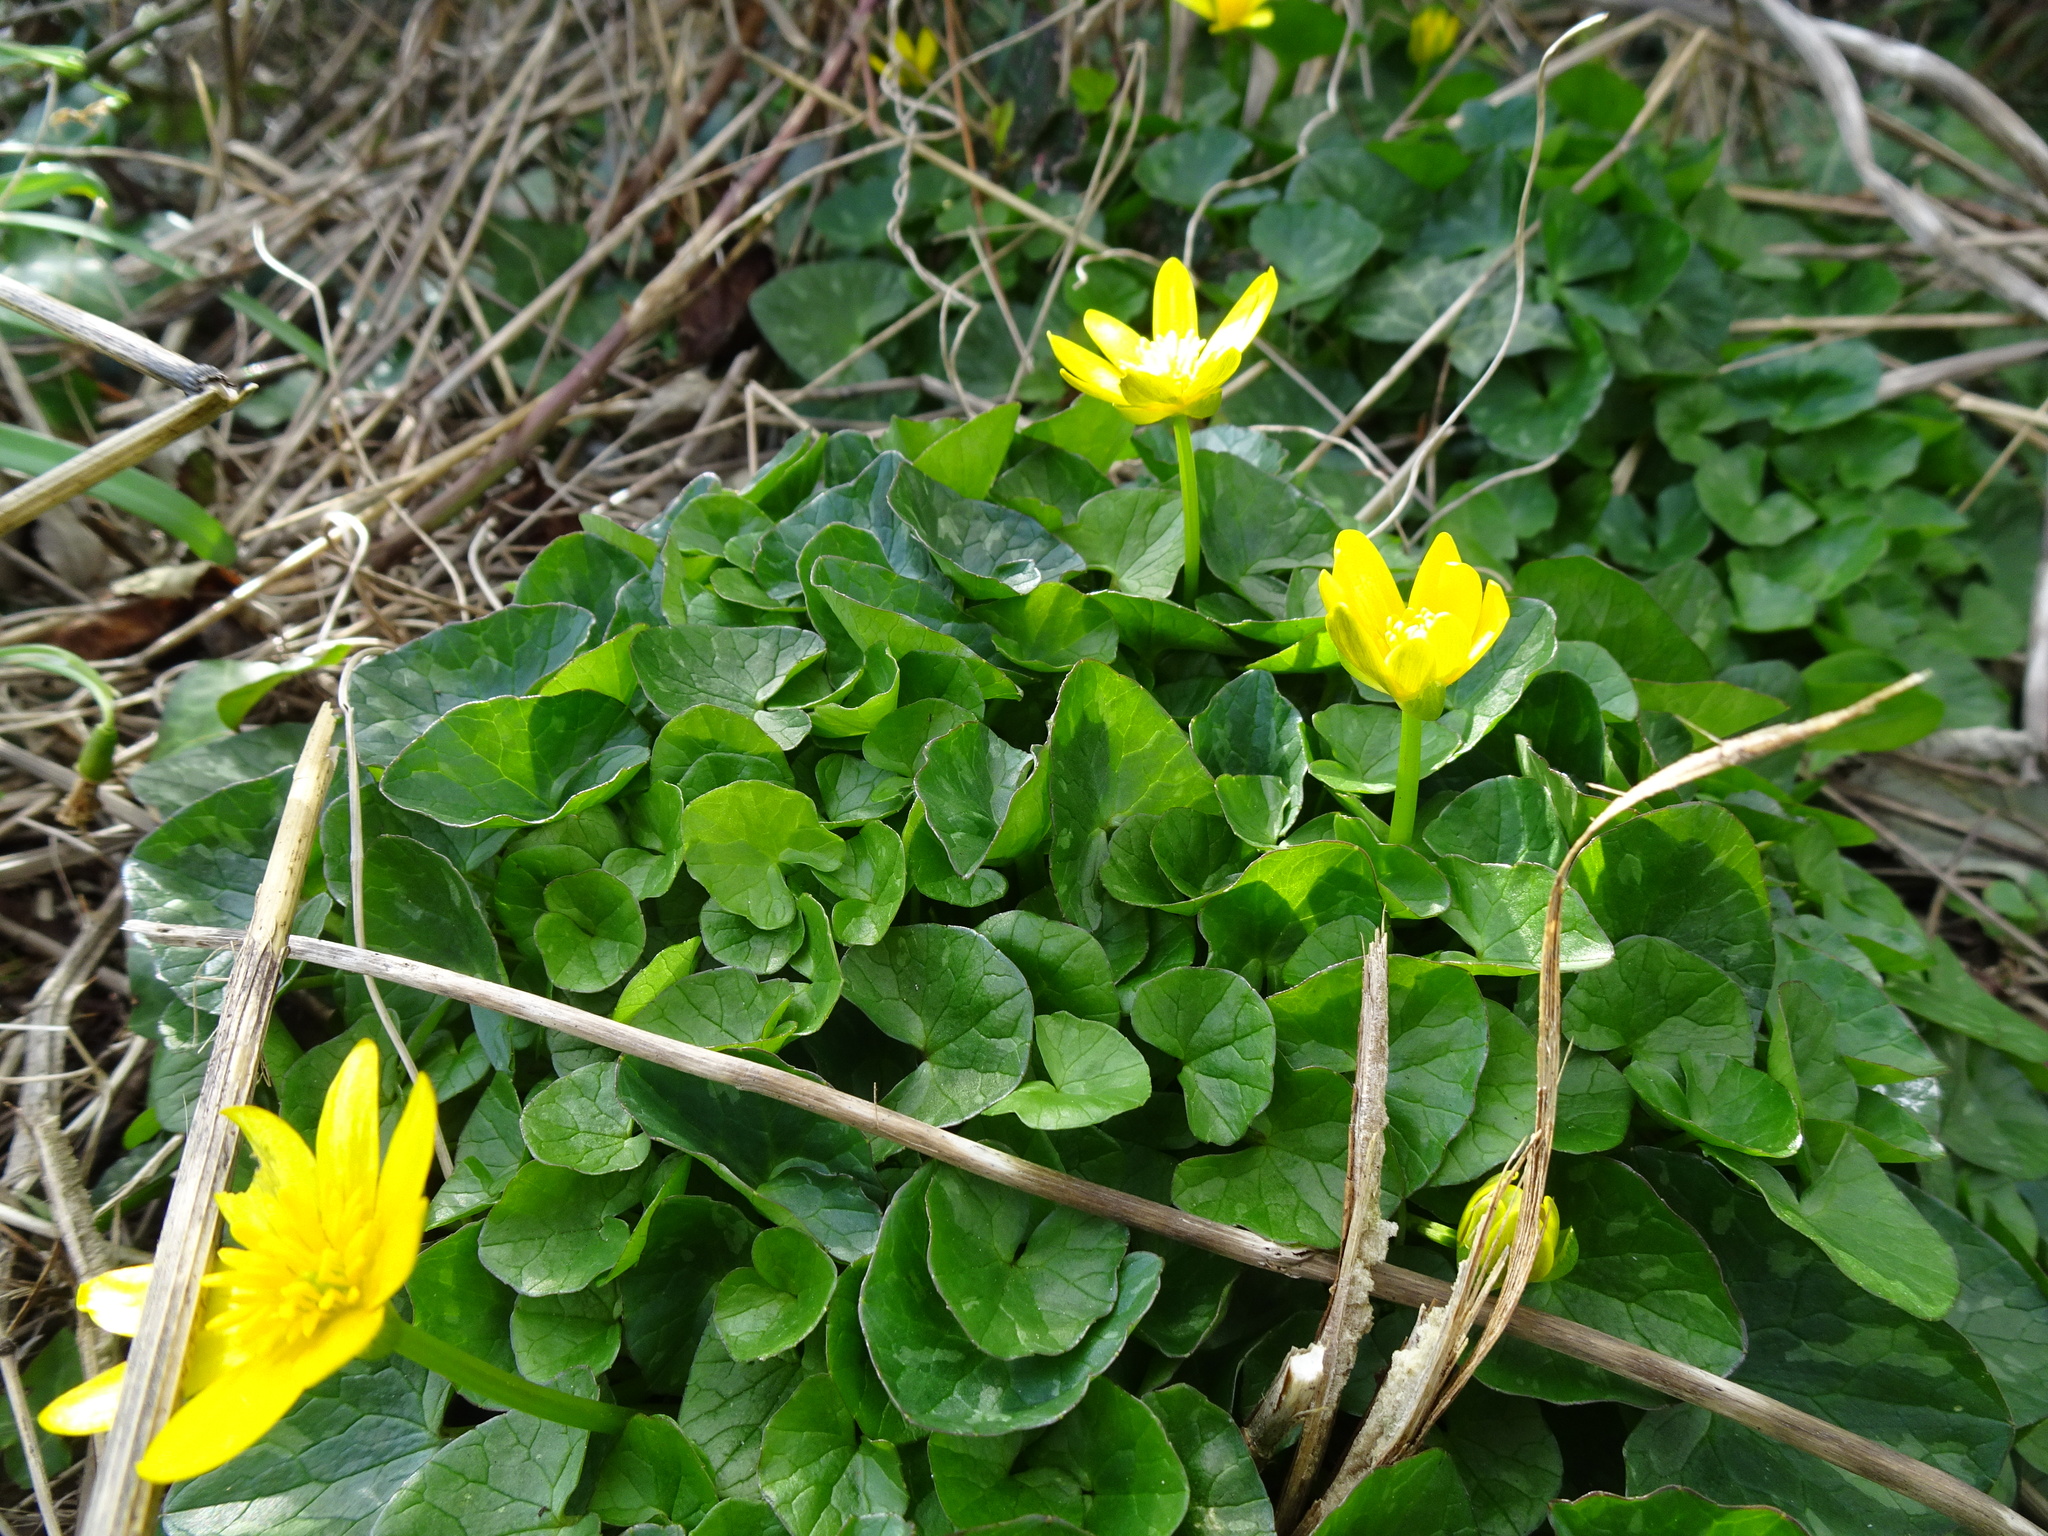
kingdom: Plantae
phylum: Tracheophyta
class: Magnoliopsida
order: Ranunculales
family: Ranunculaceae
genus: Ficaria
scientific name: Ficaria verna
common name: Lesser celandine
